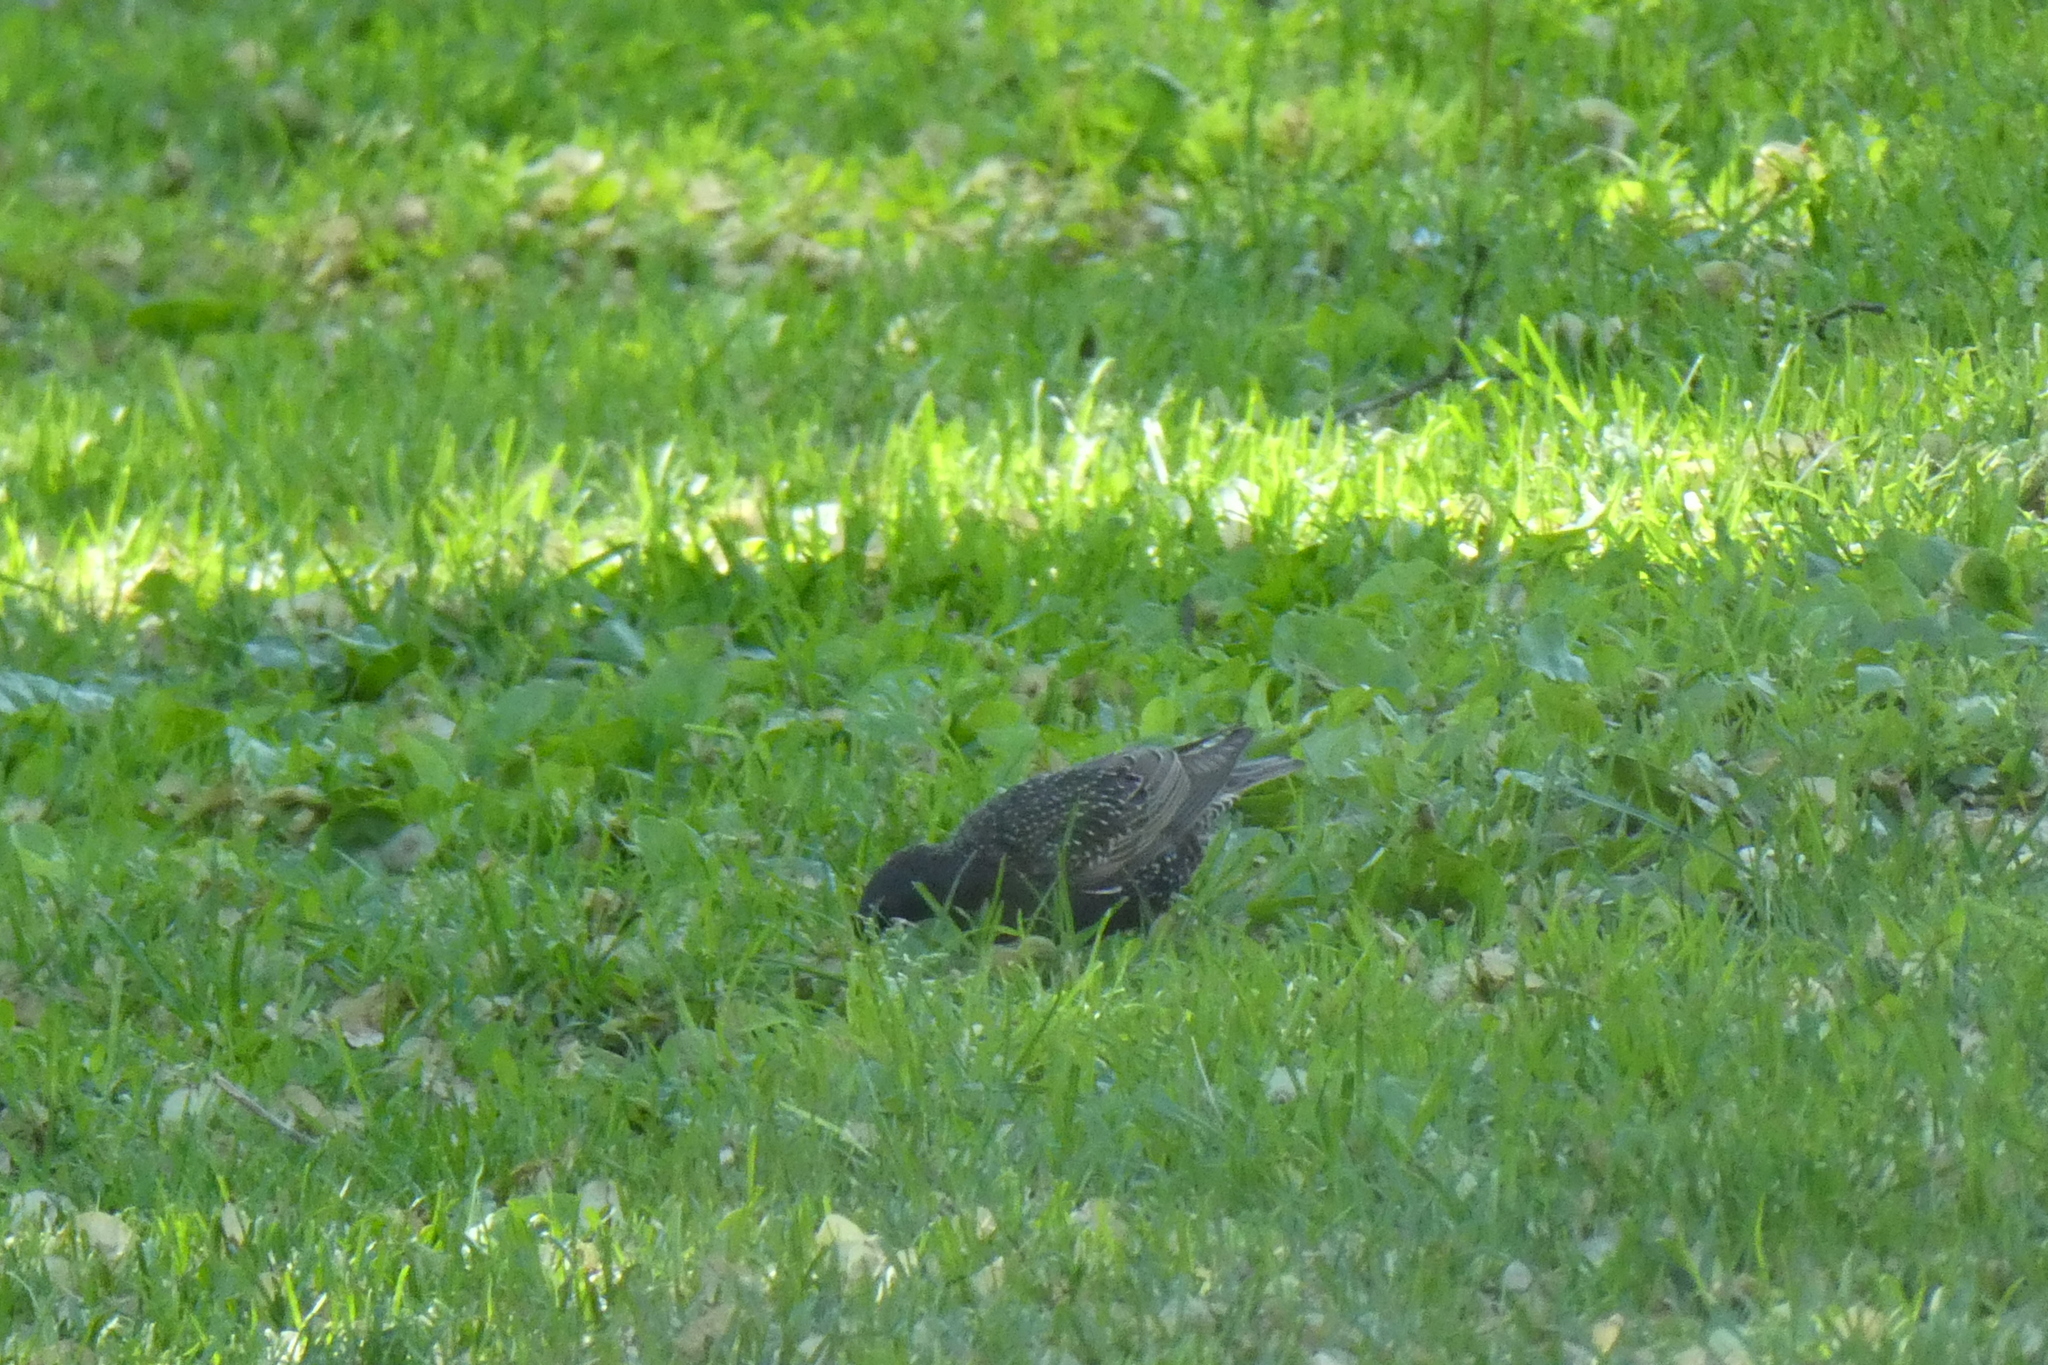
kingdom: Animalia
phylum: Chordata
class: Aves
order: Passeriformes
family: Sturnidae
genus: Sturnus
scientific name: Sturnus vulgaris
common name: Common starling
